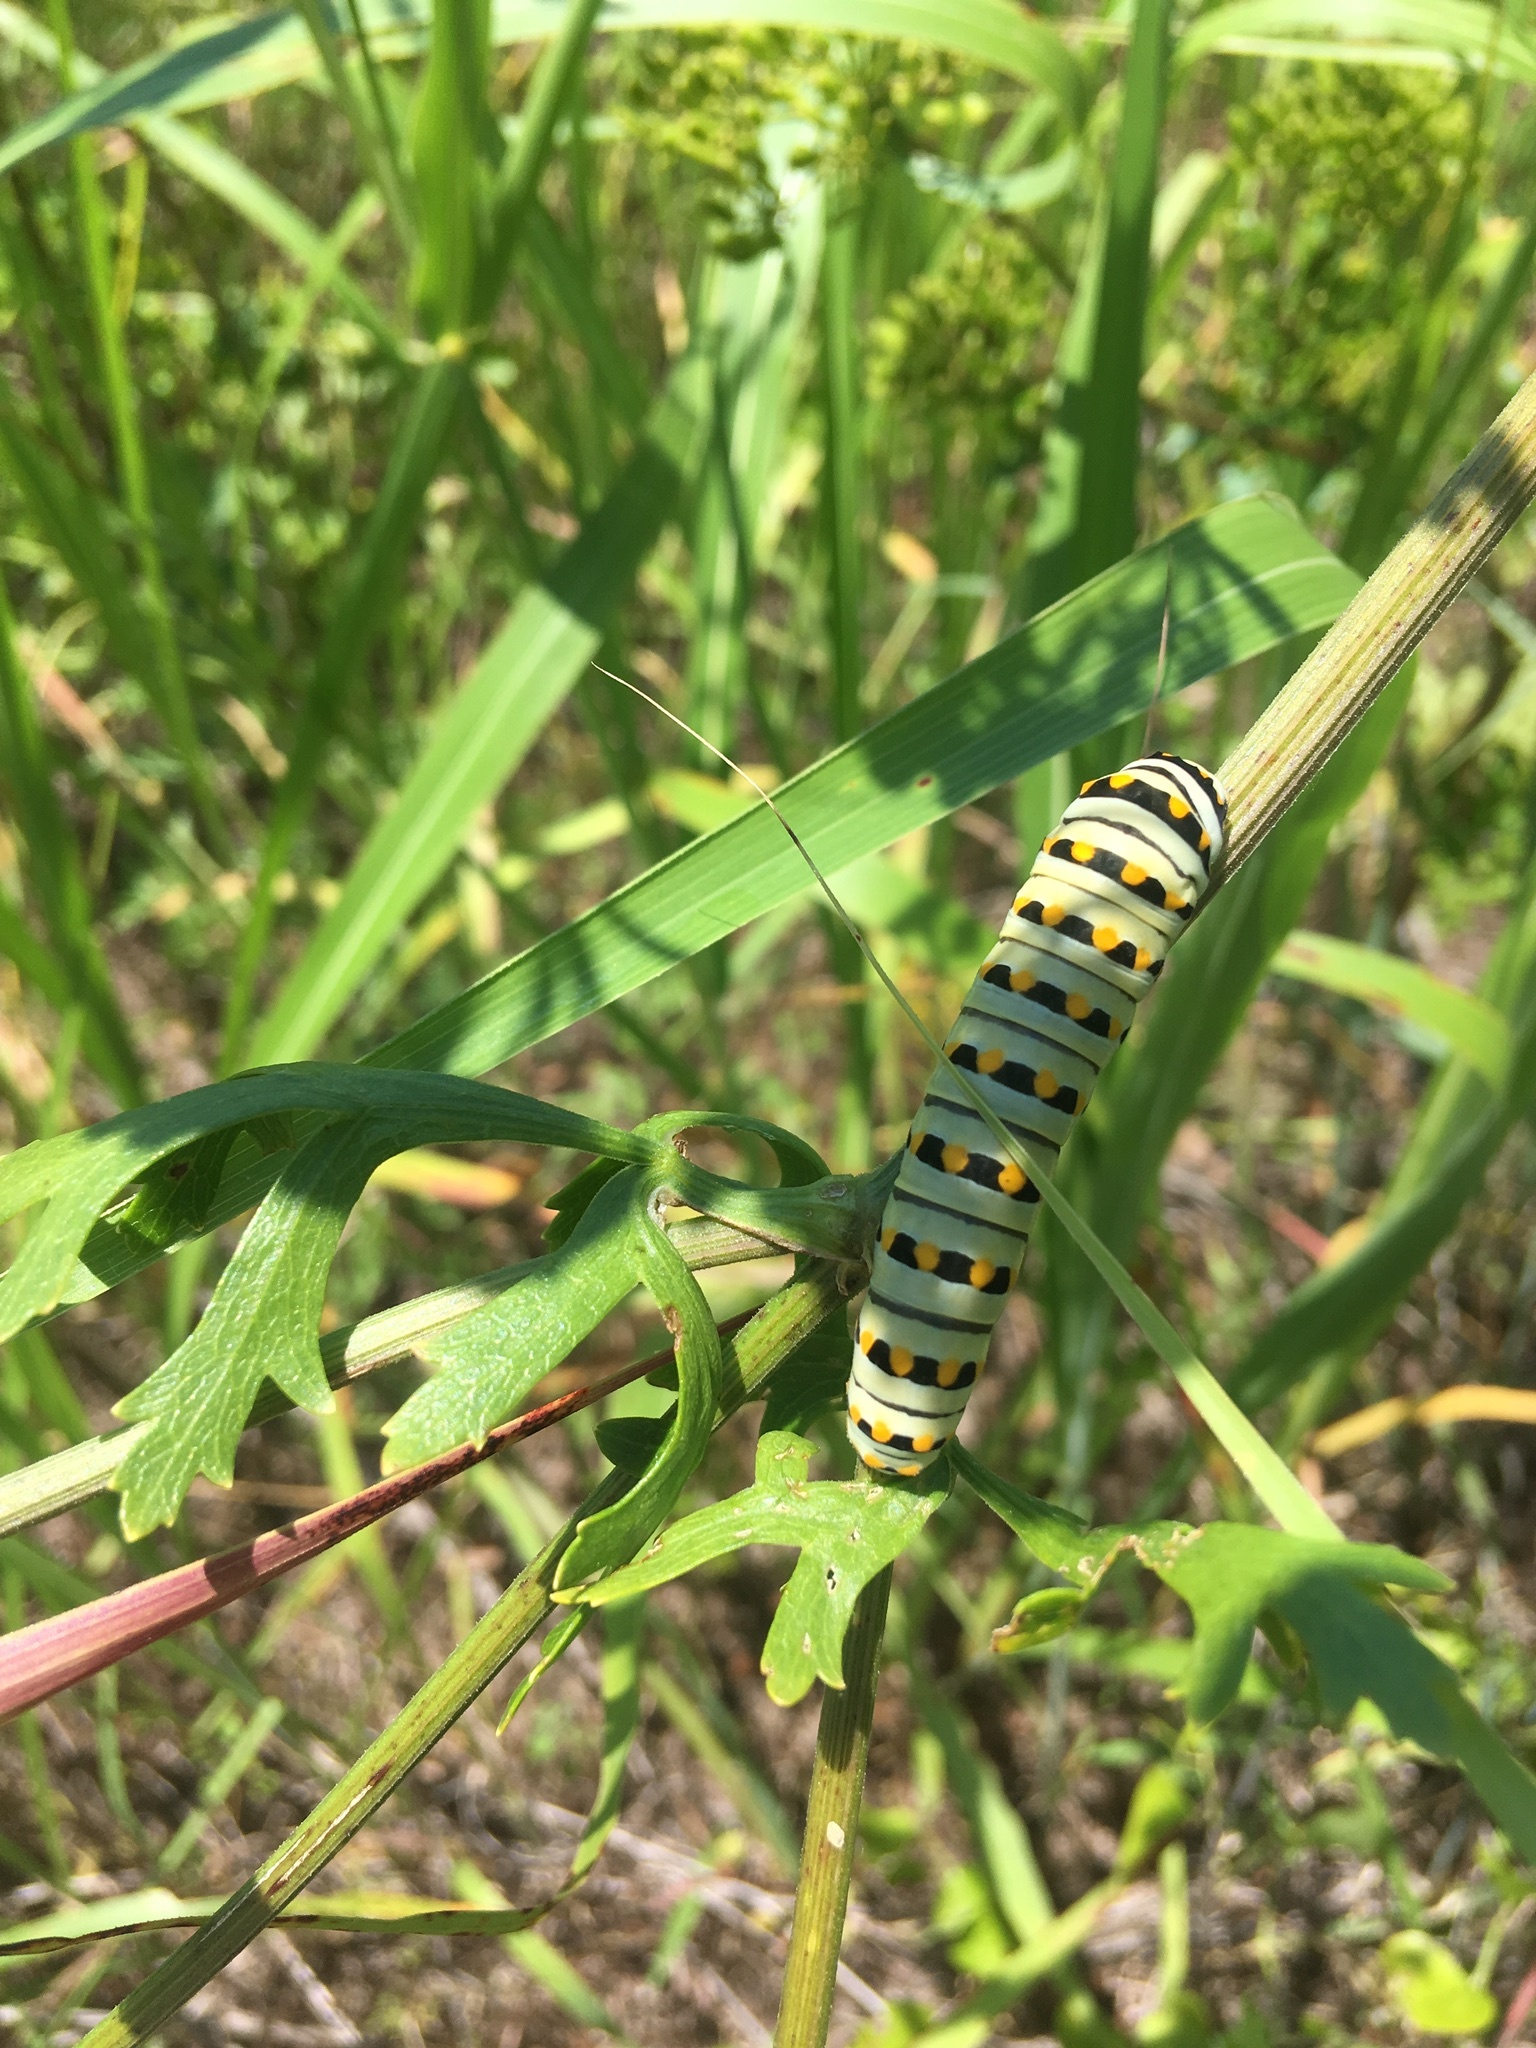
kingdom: Animalia
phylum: Arthropoda
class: Insecta
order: Lepidoptera
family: Papilionidae
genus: Papilio
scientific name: Papilio polyxenes
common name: Black swallowtail
